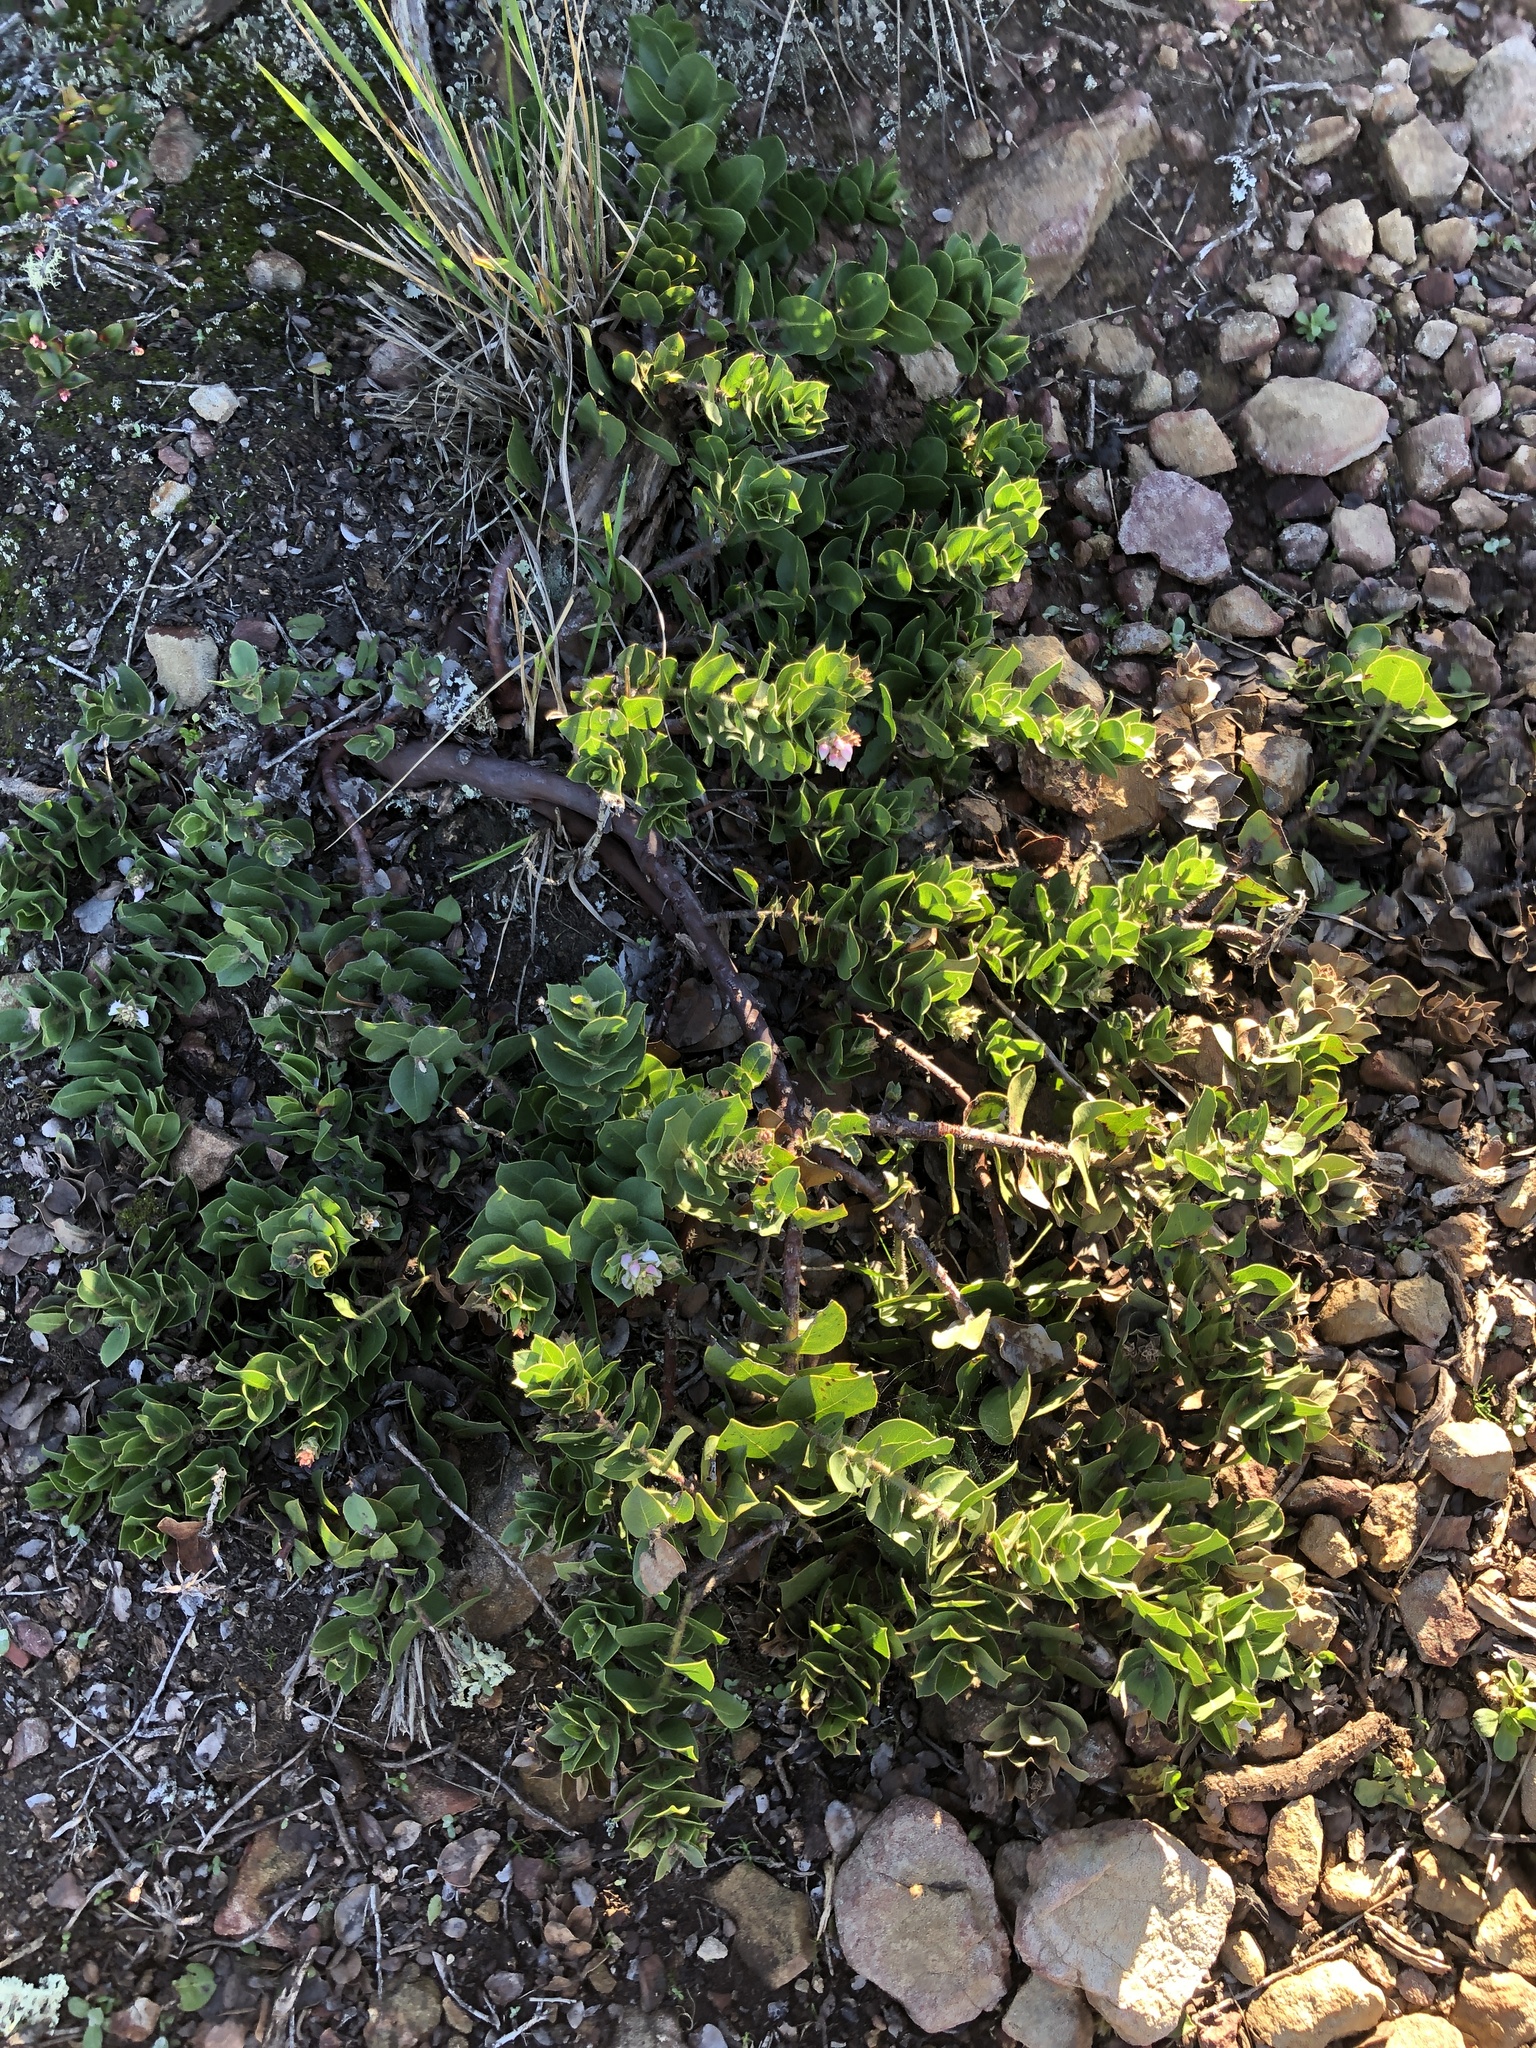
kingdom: Plantae
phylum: Tracheophyta
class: Magnoliopsida
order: Ericales
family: Ericaceae
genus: Arctostaphylos
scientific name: Arctostaphylos imbricata
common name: San bruno mountain manzanita
